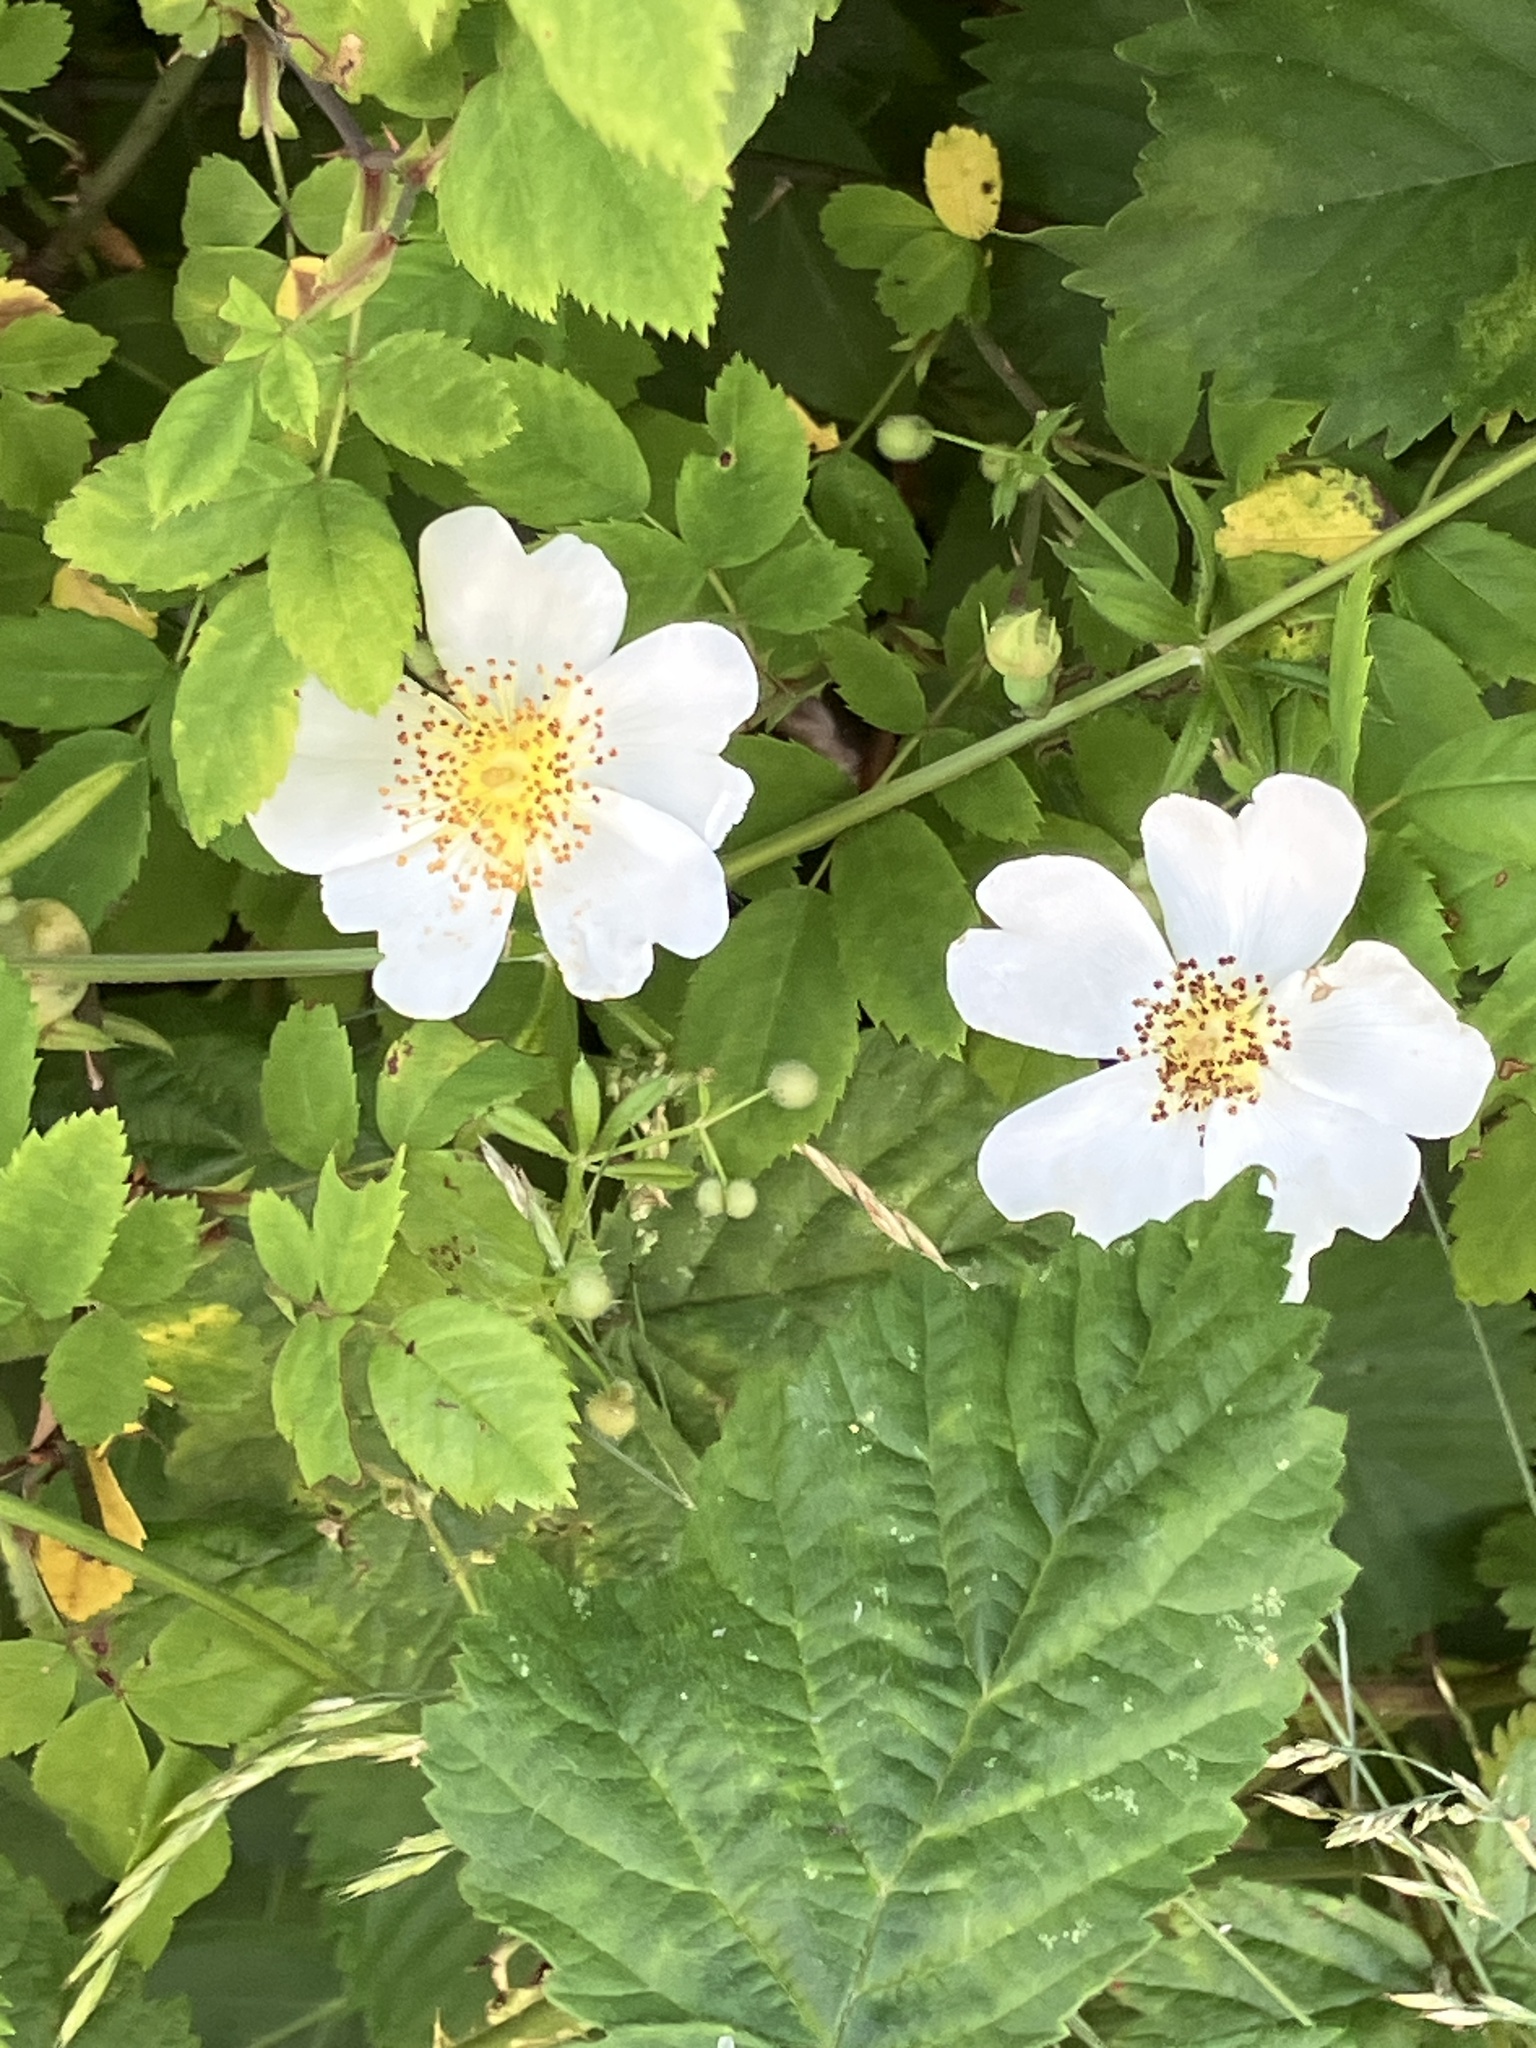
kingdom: Plantae
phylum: Tracheophyta
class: Magnoliopsida
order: Rosales
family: Rosaceae
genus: Rosa
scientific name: Rosa arvensis
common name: Field rose
